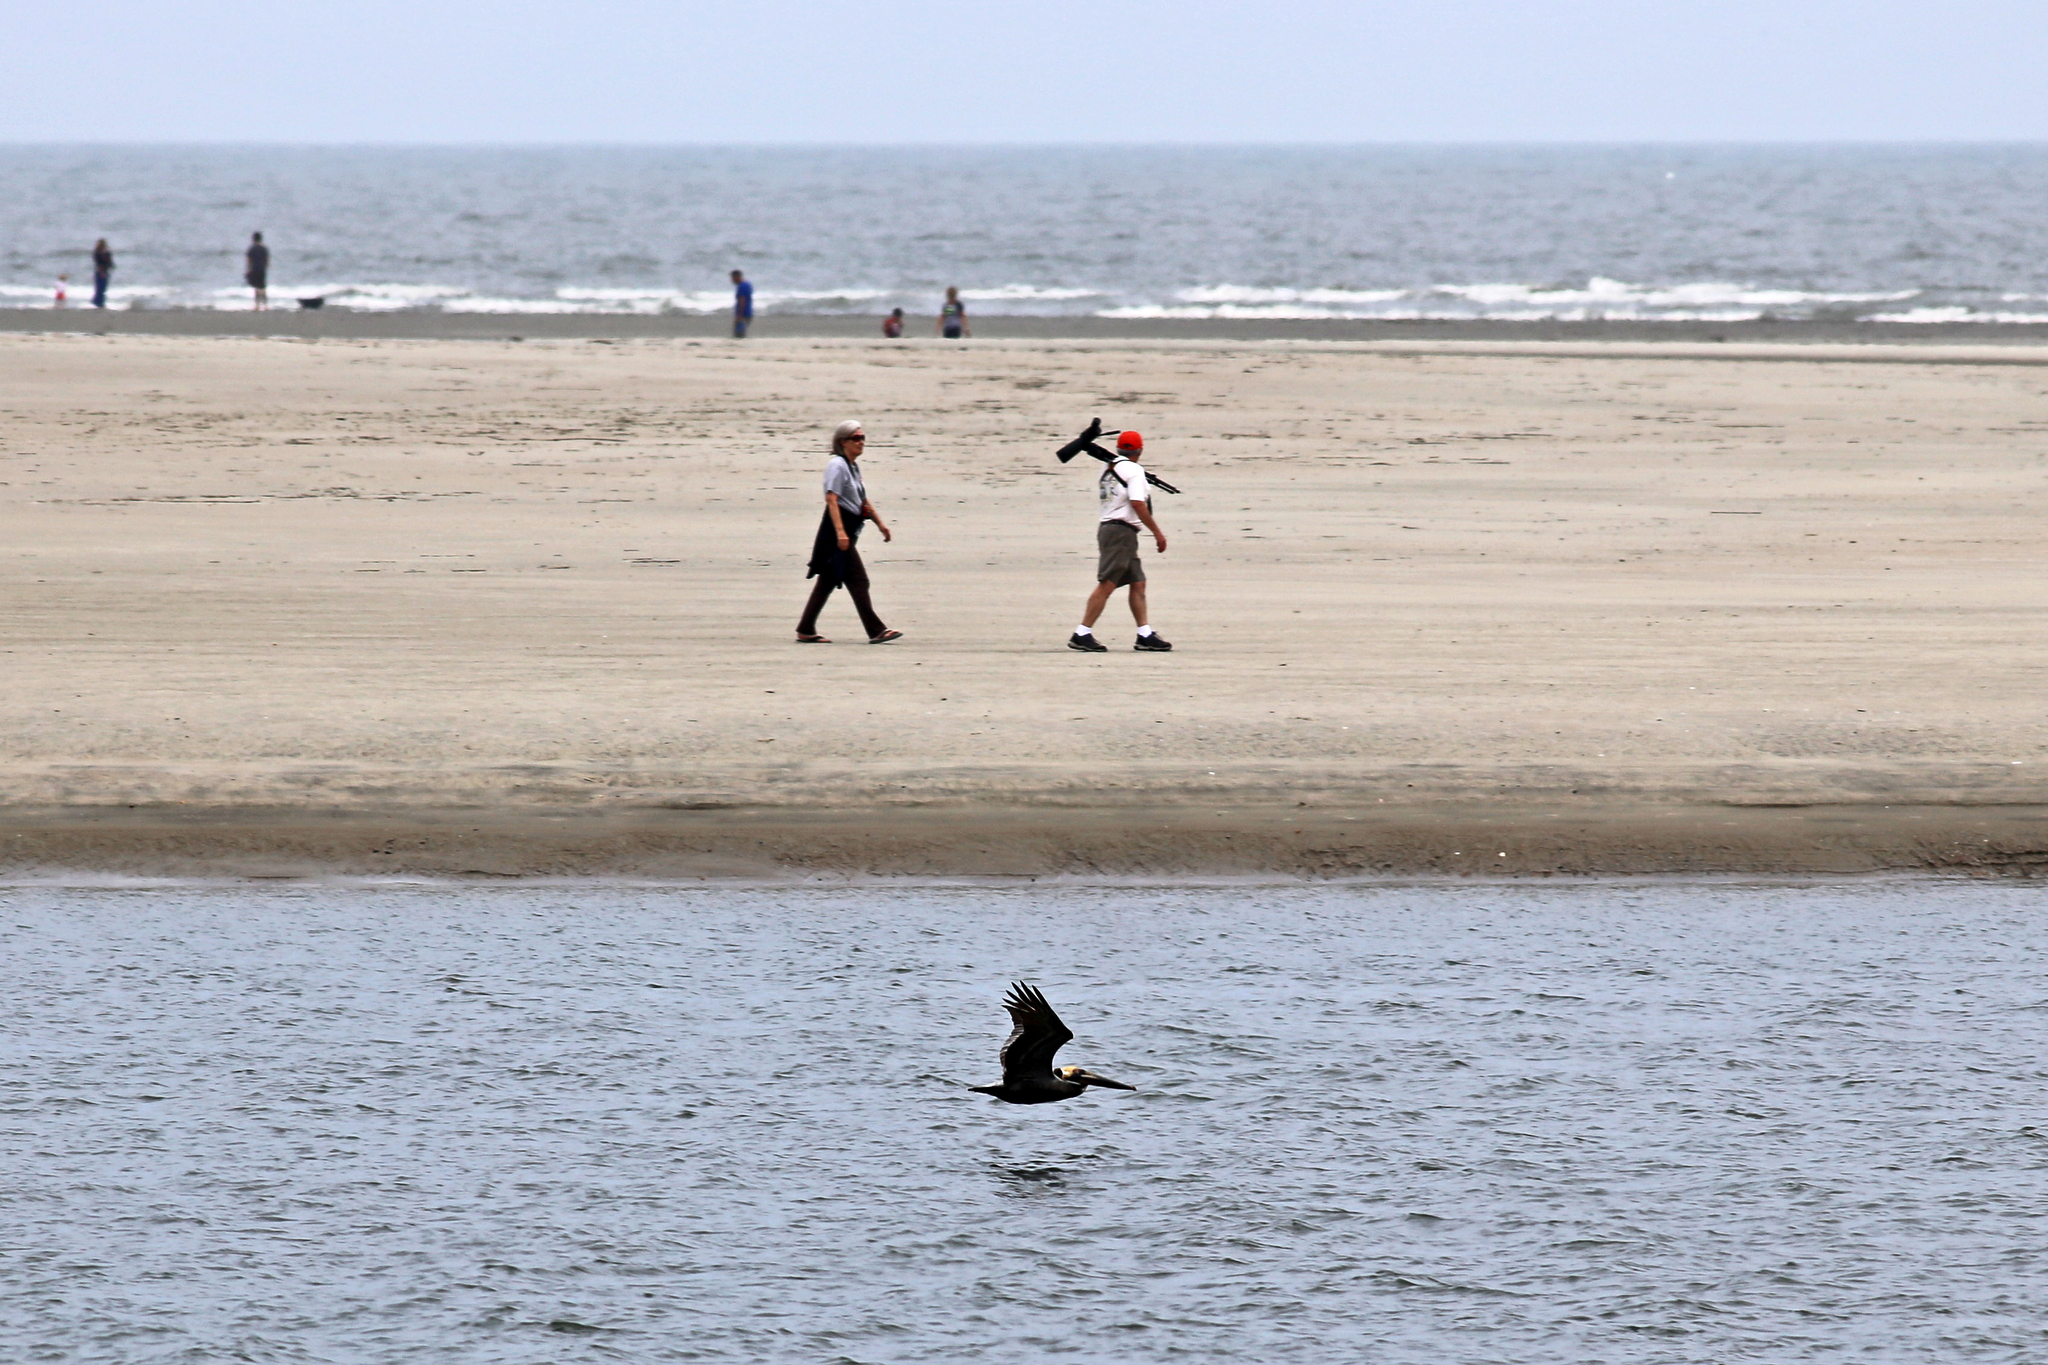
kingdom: Animalia
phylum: Chordata
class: Aves
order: Pelecaniformes
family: Pelecanidae
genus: Pelecanus
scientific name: Pelecanus occidentalis
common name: Brown pelican
